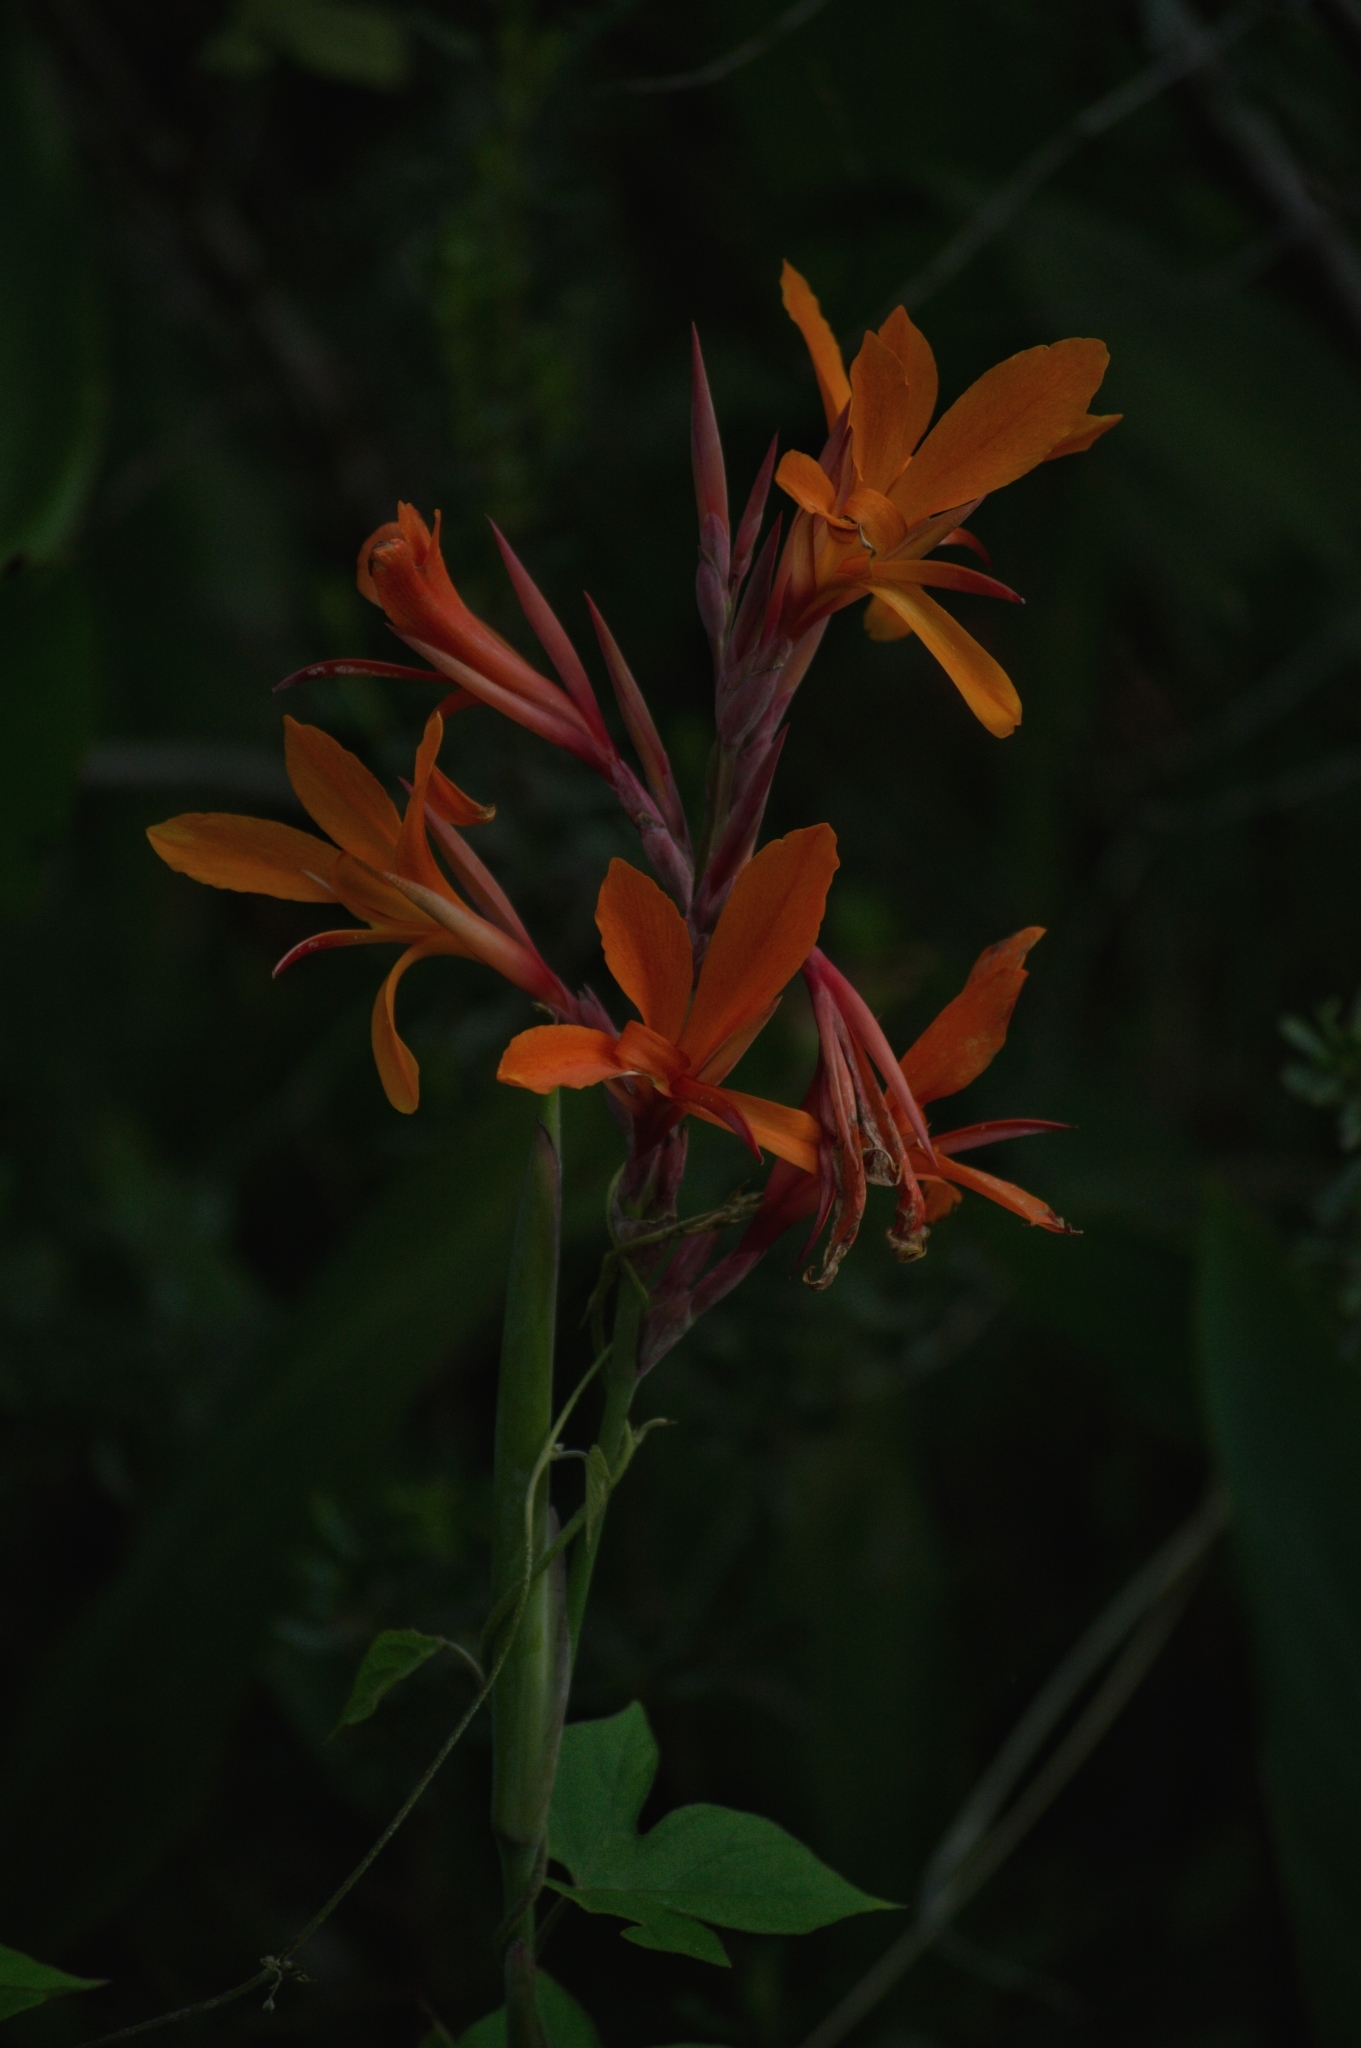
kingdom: Plantae
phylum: Tracheophyta
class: Liliopsida
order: Zingiberales
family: Cannaceae
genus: Canna
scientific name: Canna indica
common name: Indian shot
